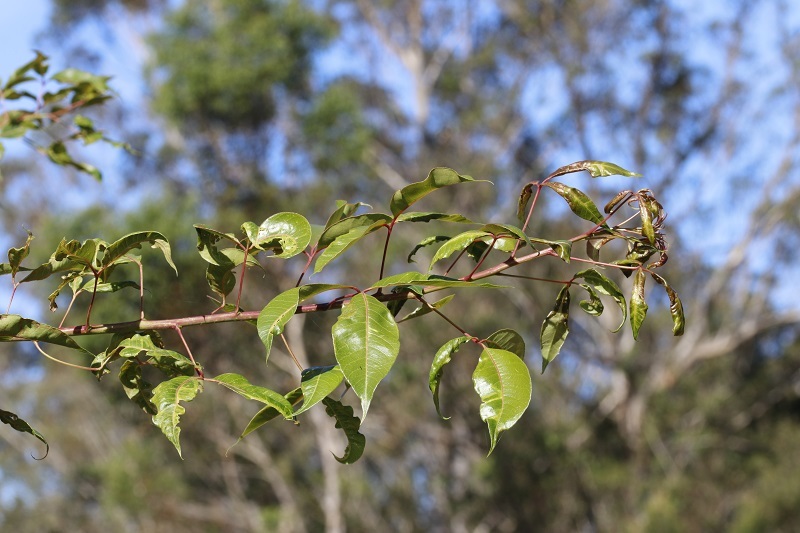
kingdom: Plantae
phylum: Tracheophyta
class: Magnoliopsida
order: Sapindales
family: Anacardiaceae
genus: Searsia
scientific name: Searsia chirindensis
